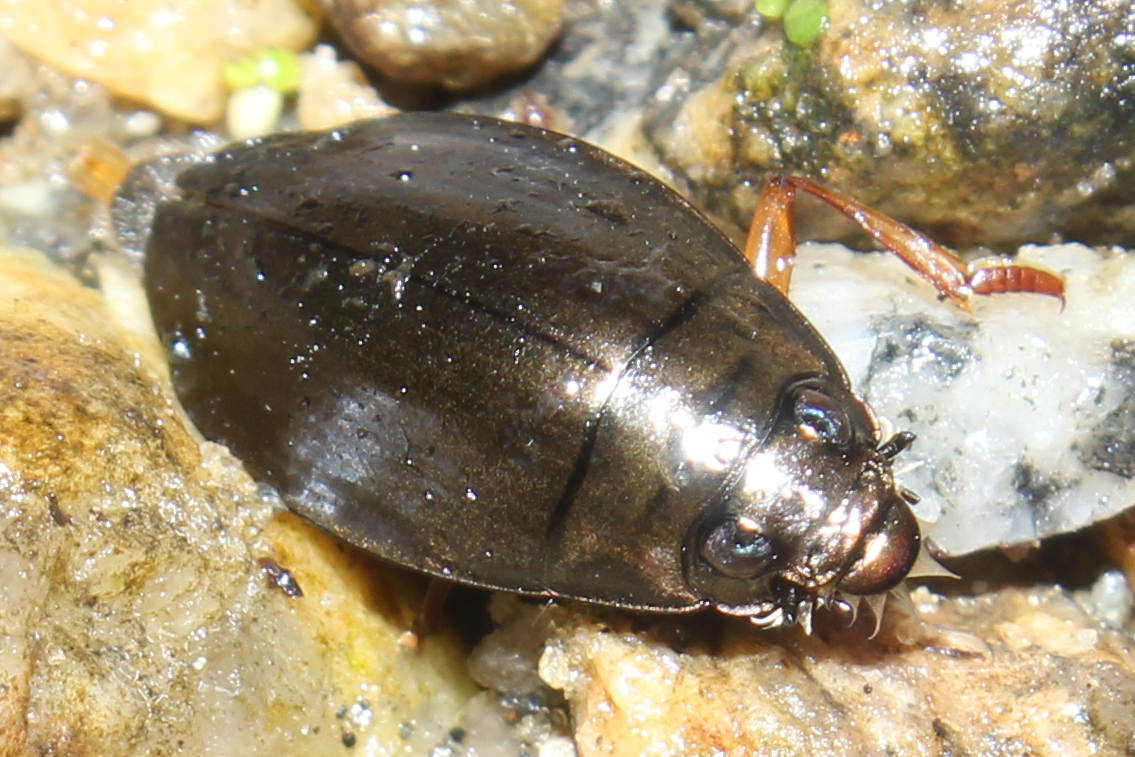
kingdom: Animalia
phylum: Arthropoda
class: Insecta
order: Coleoptera
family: Gyrinidae
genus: Dineutus
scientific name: Dineutus
